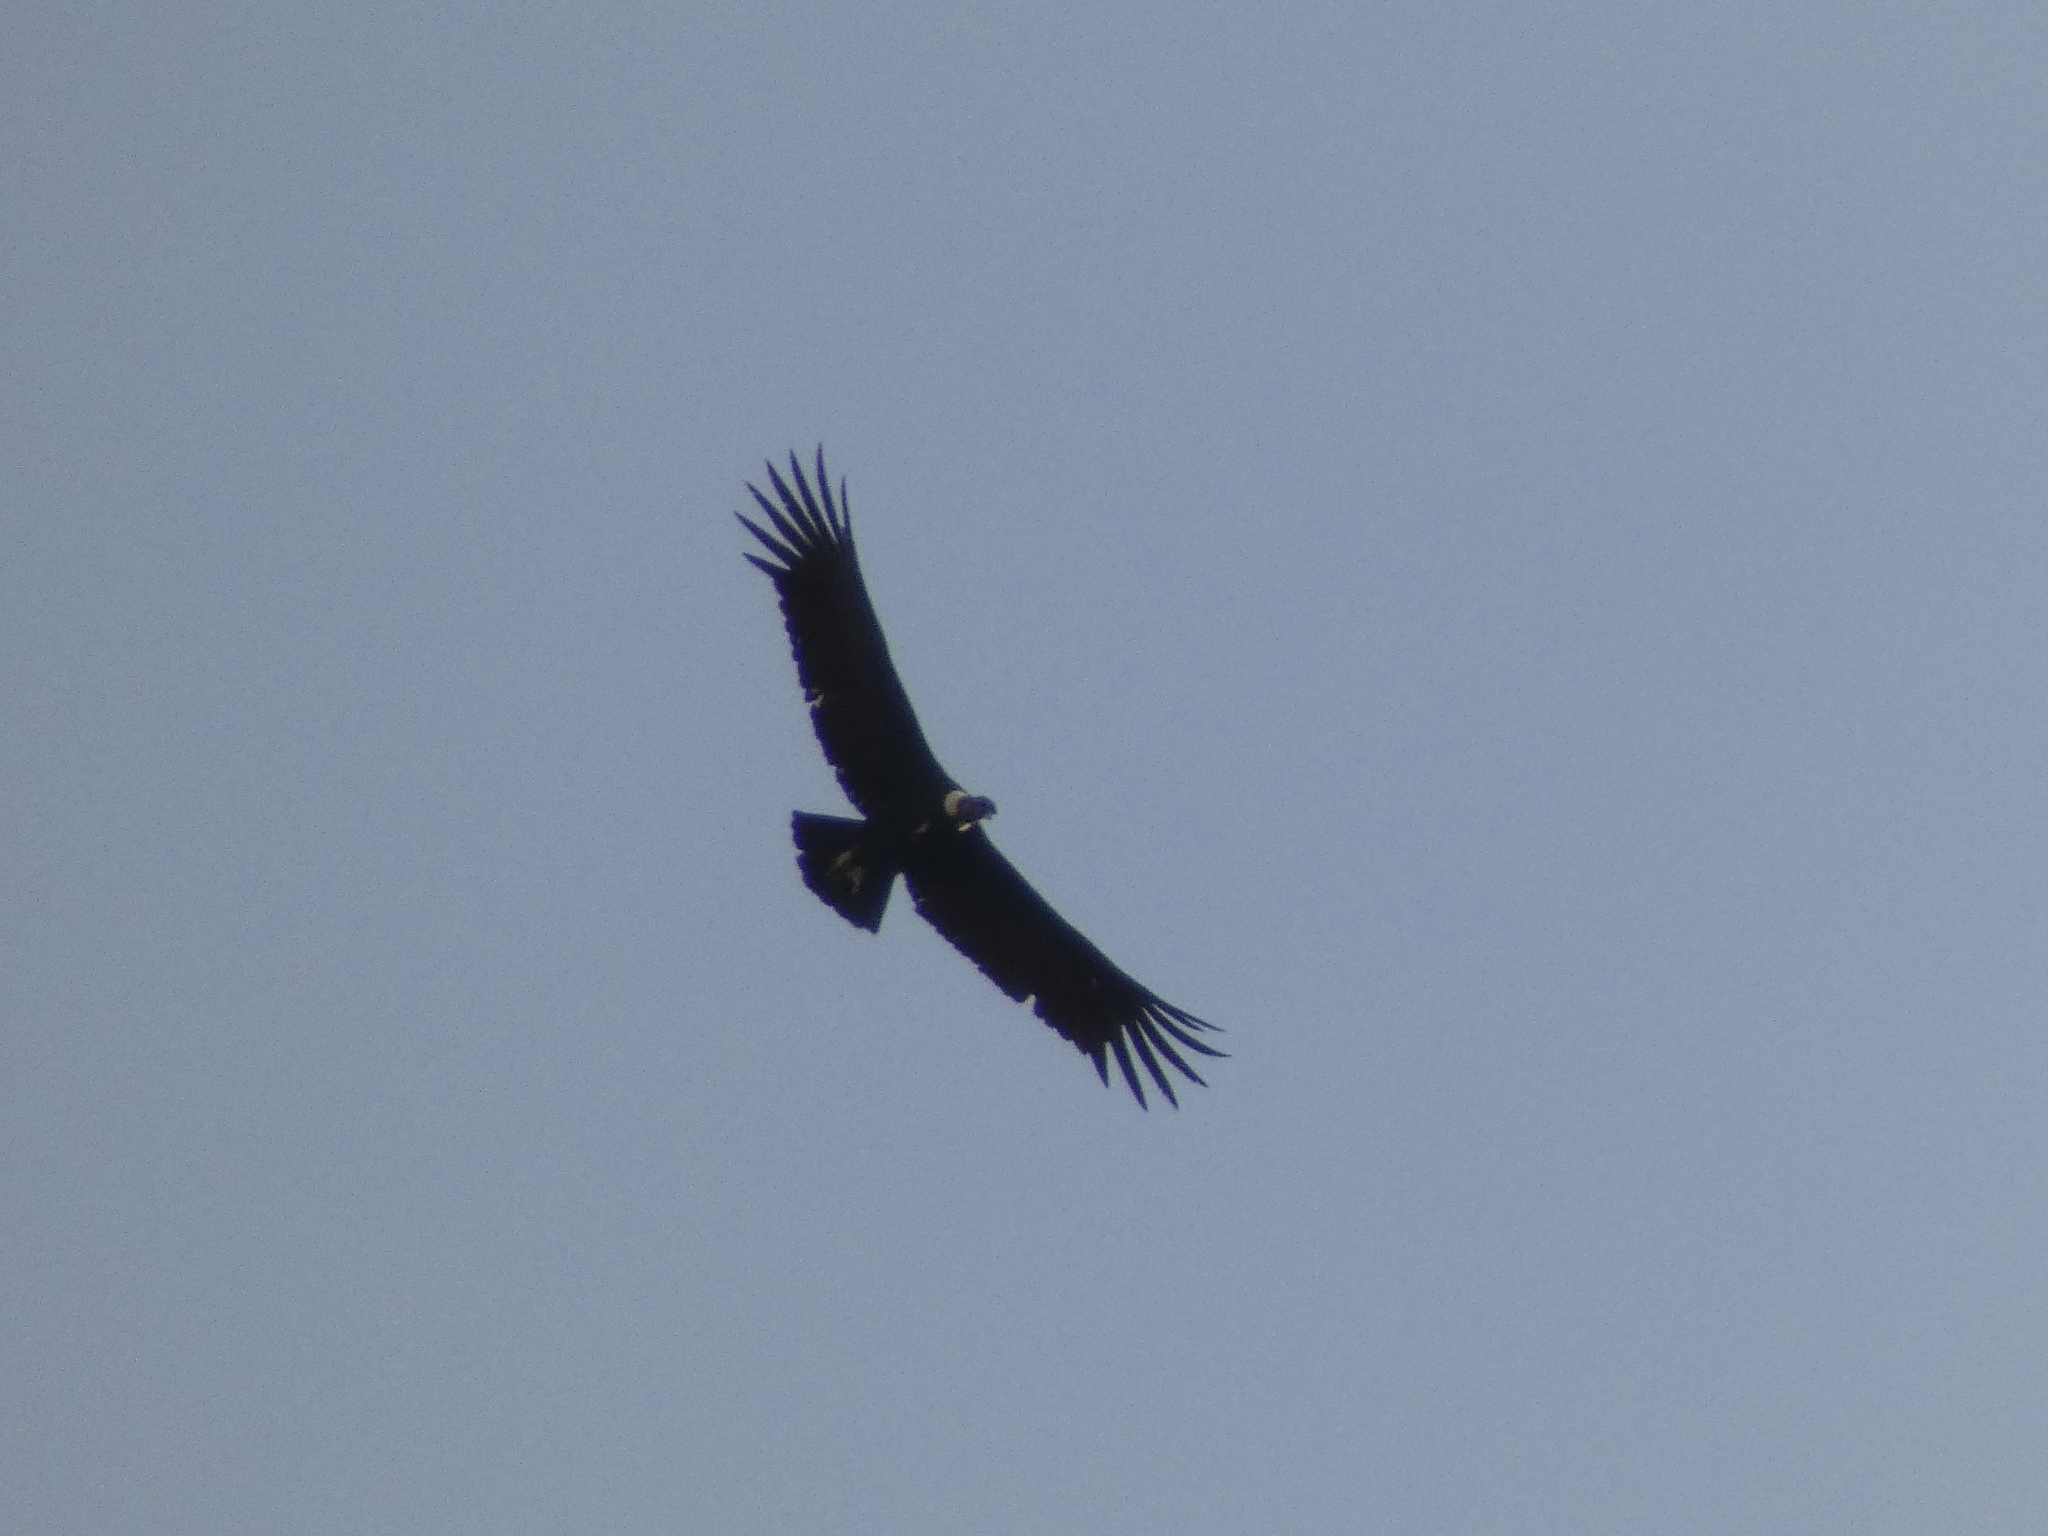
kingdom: Animalia
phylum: Chordata
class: Aves
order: Accipitriformes
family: Cathartidae
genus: Vultur
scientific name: Vultur gryphus
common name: Andean condor
